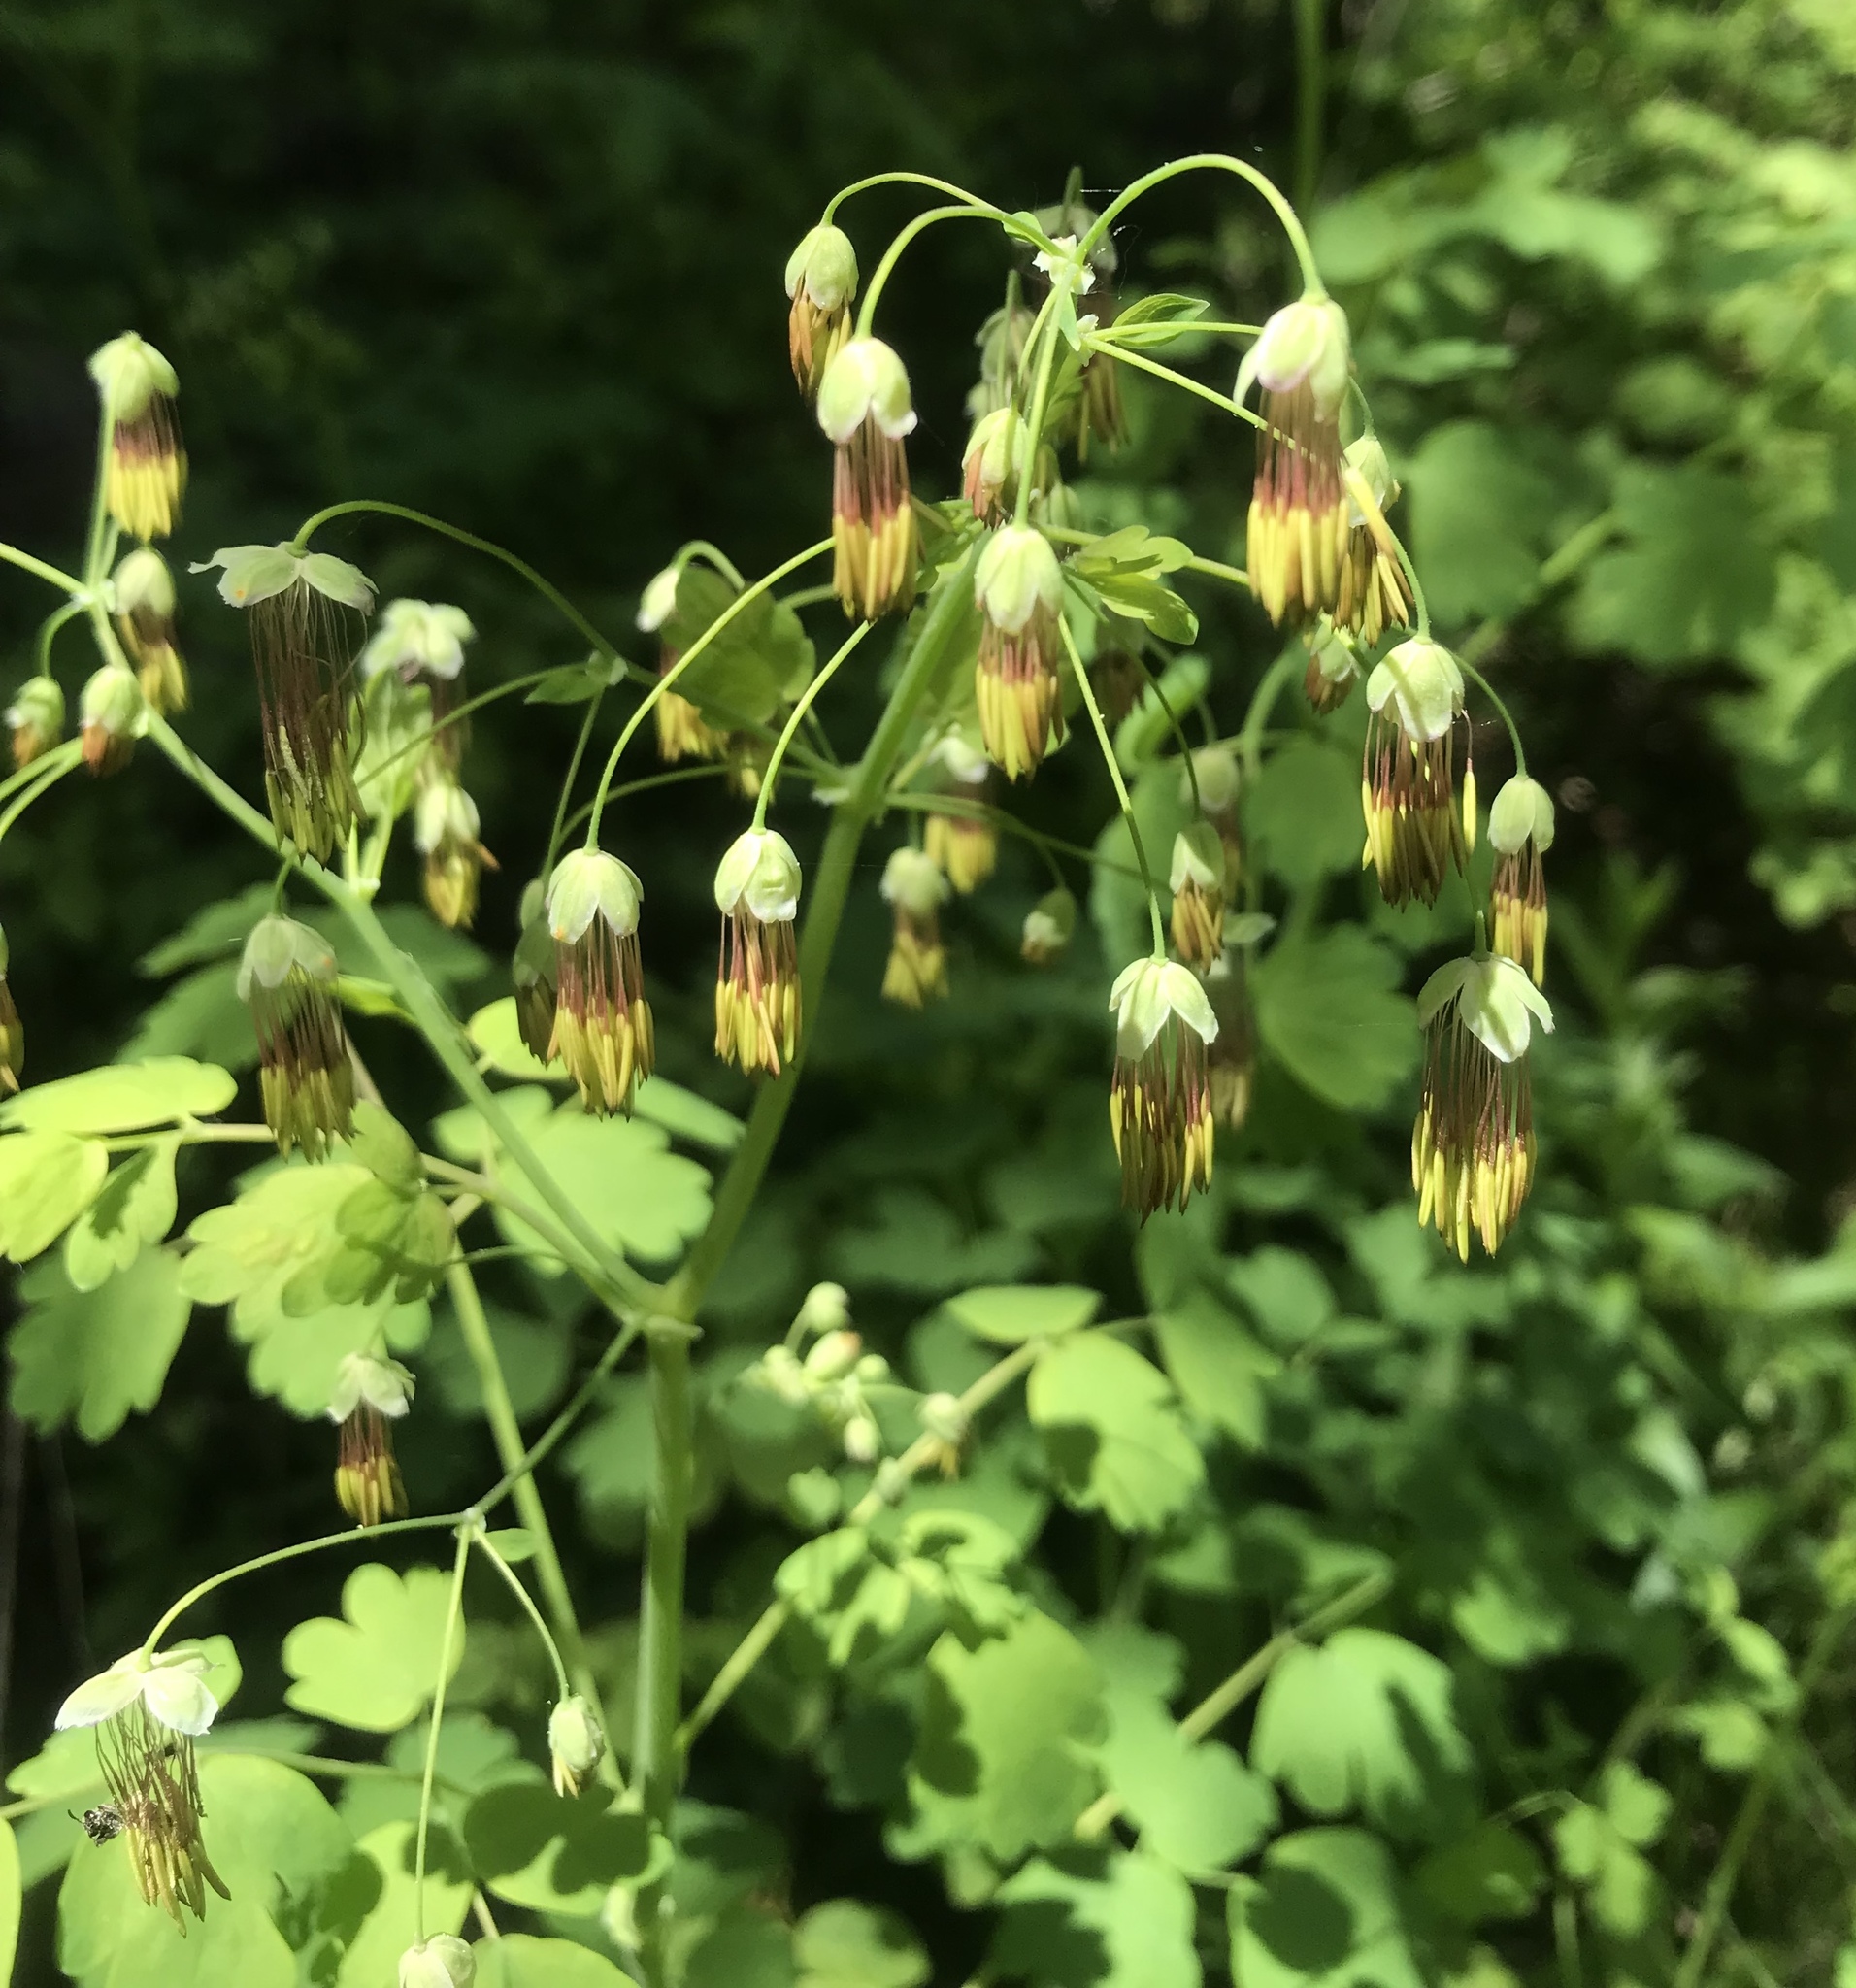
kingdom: Plantae
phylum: Tracheophyta
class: Magnoliopsida
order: Ranunculales
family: Ranunculaceae
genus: Thalictrum
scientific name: Thalictrum occidentale
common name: Western meadow-rue
